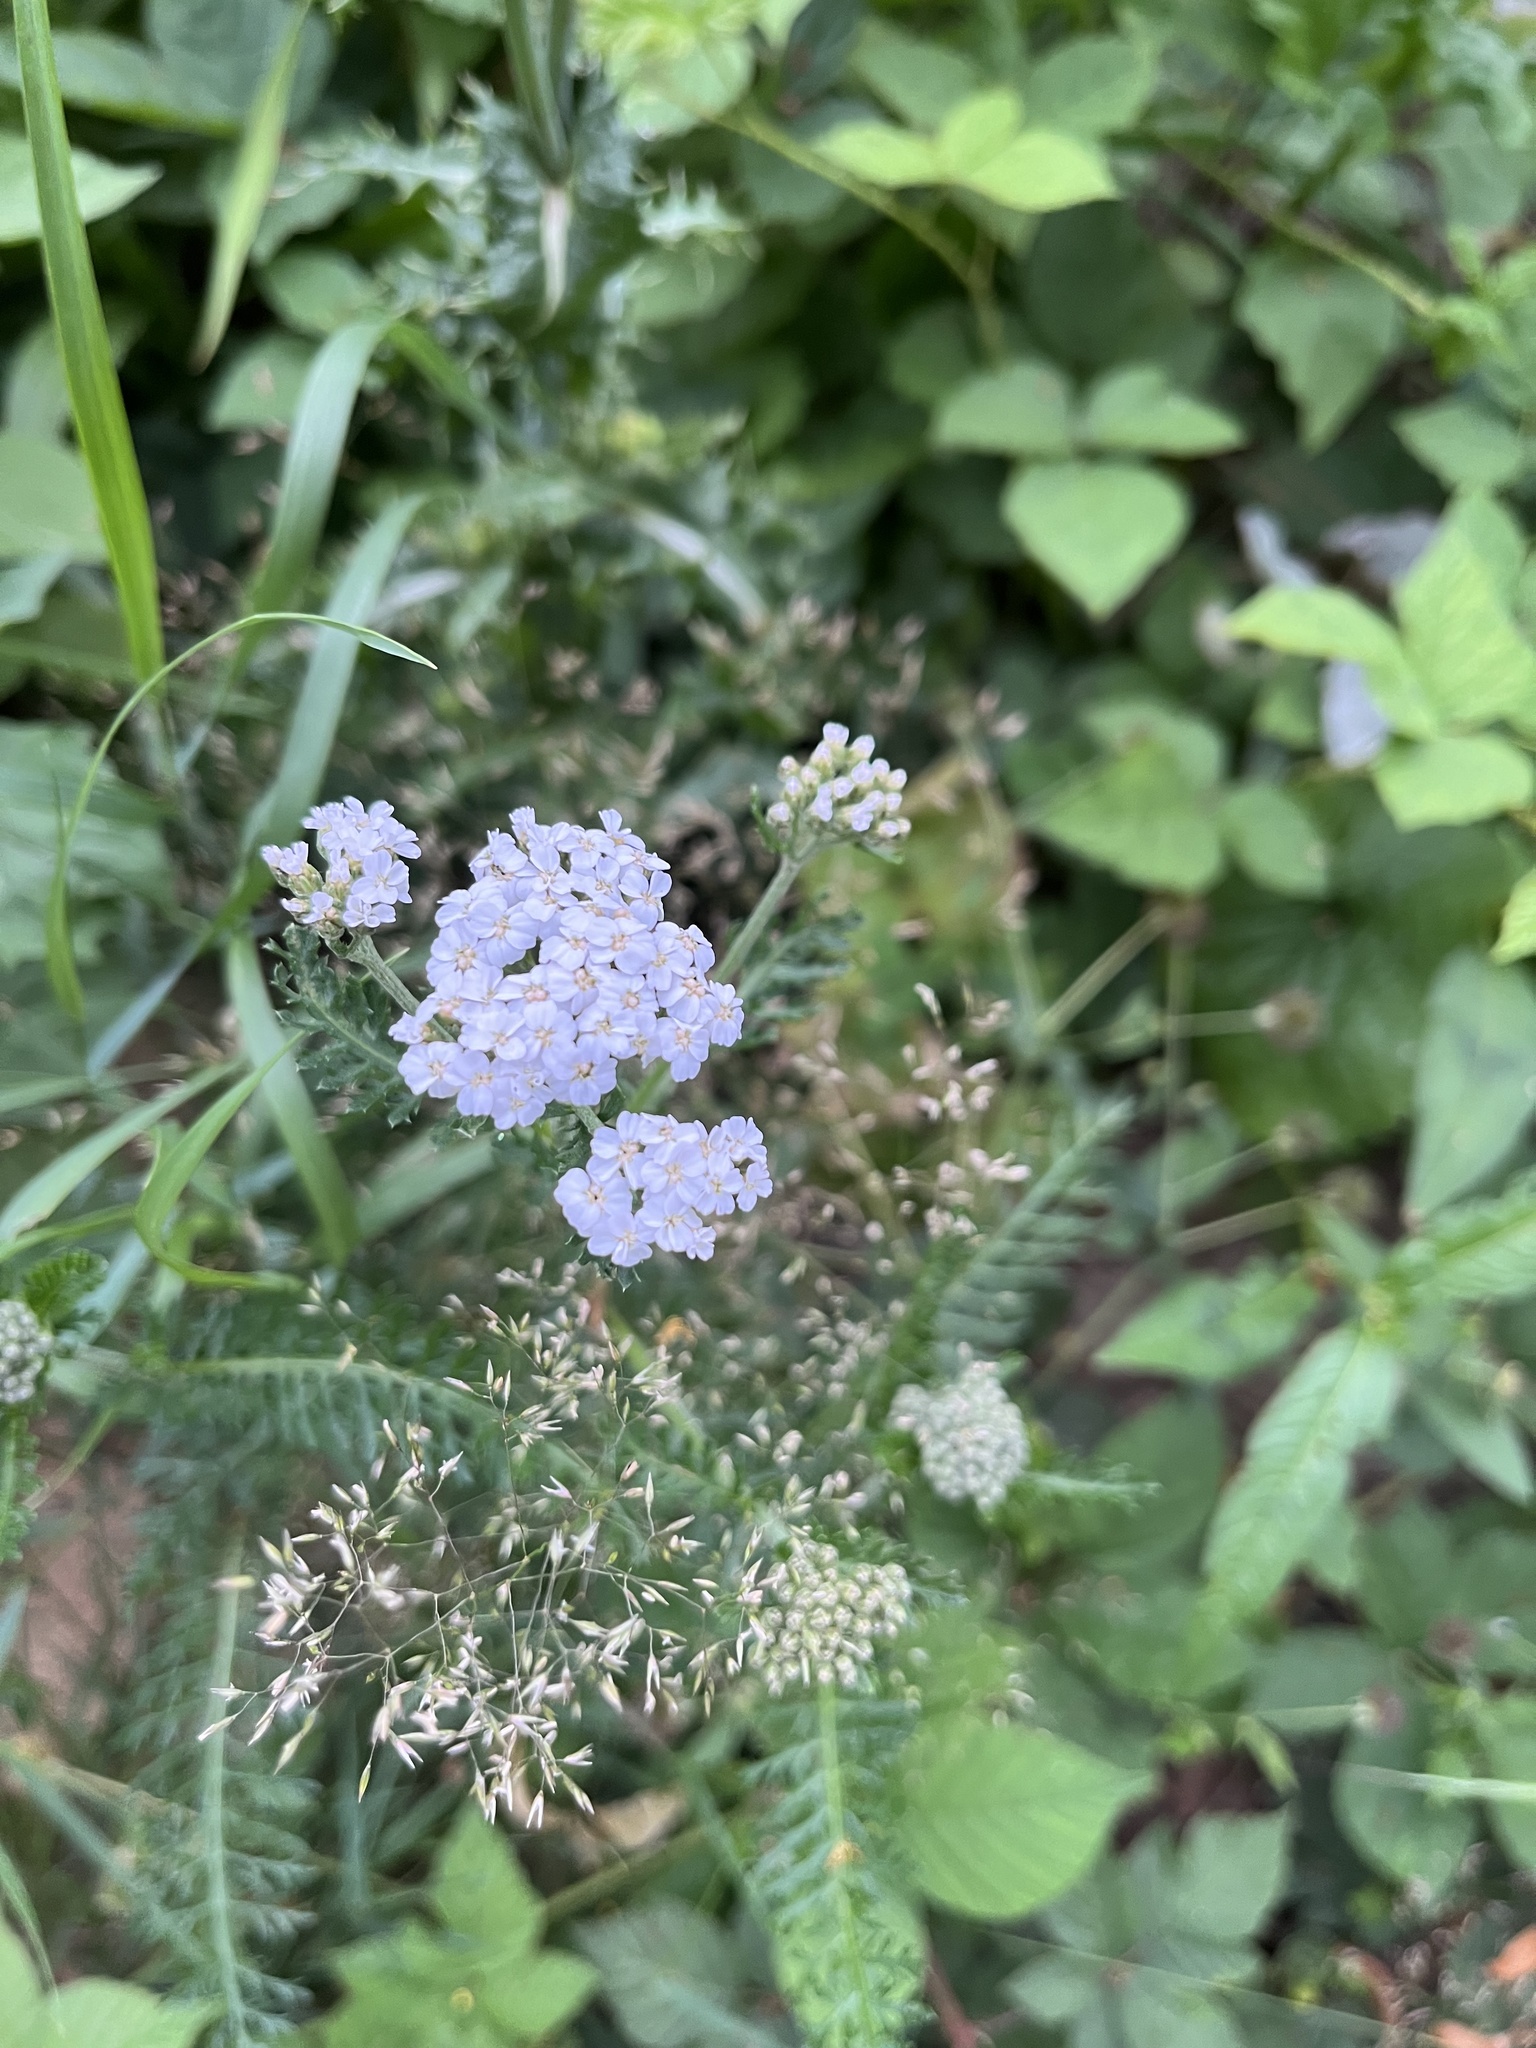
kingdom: Plantae
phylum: Tracheophyta
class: Magnoliopsida
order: Asterales
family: Asteraceae
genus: Achillea
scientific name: Achillea millefolium
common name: Yarrow
